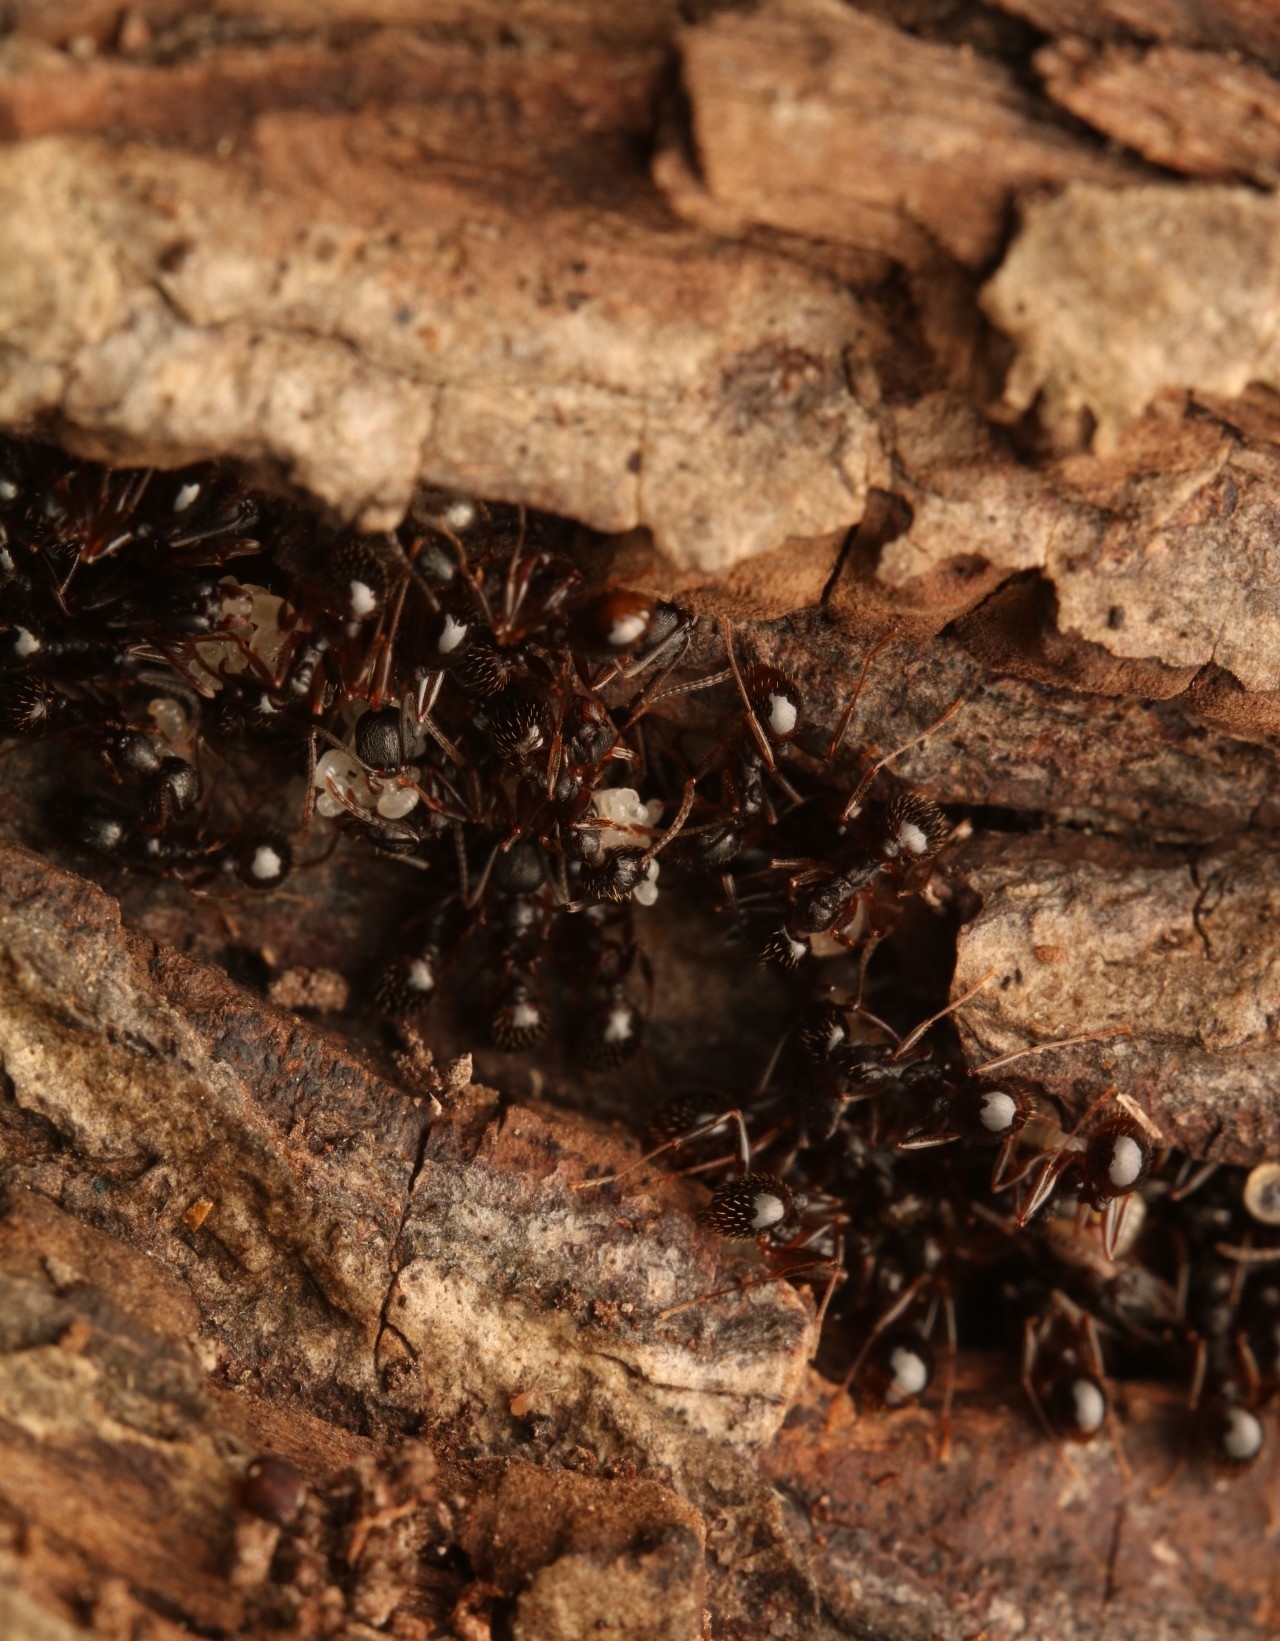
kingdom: Animalia
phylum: Arthropoda
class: Insecta
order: Hymenoptera
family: Formicidae
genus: Aphaenogaster
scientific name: Aphaenogaster picea
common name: Pitch-black collared ant
